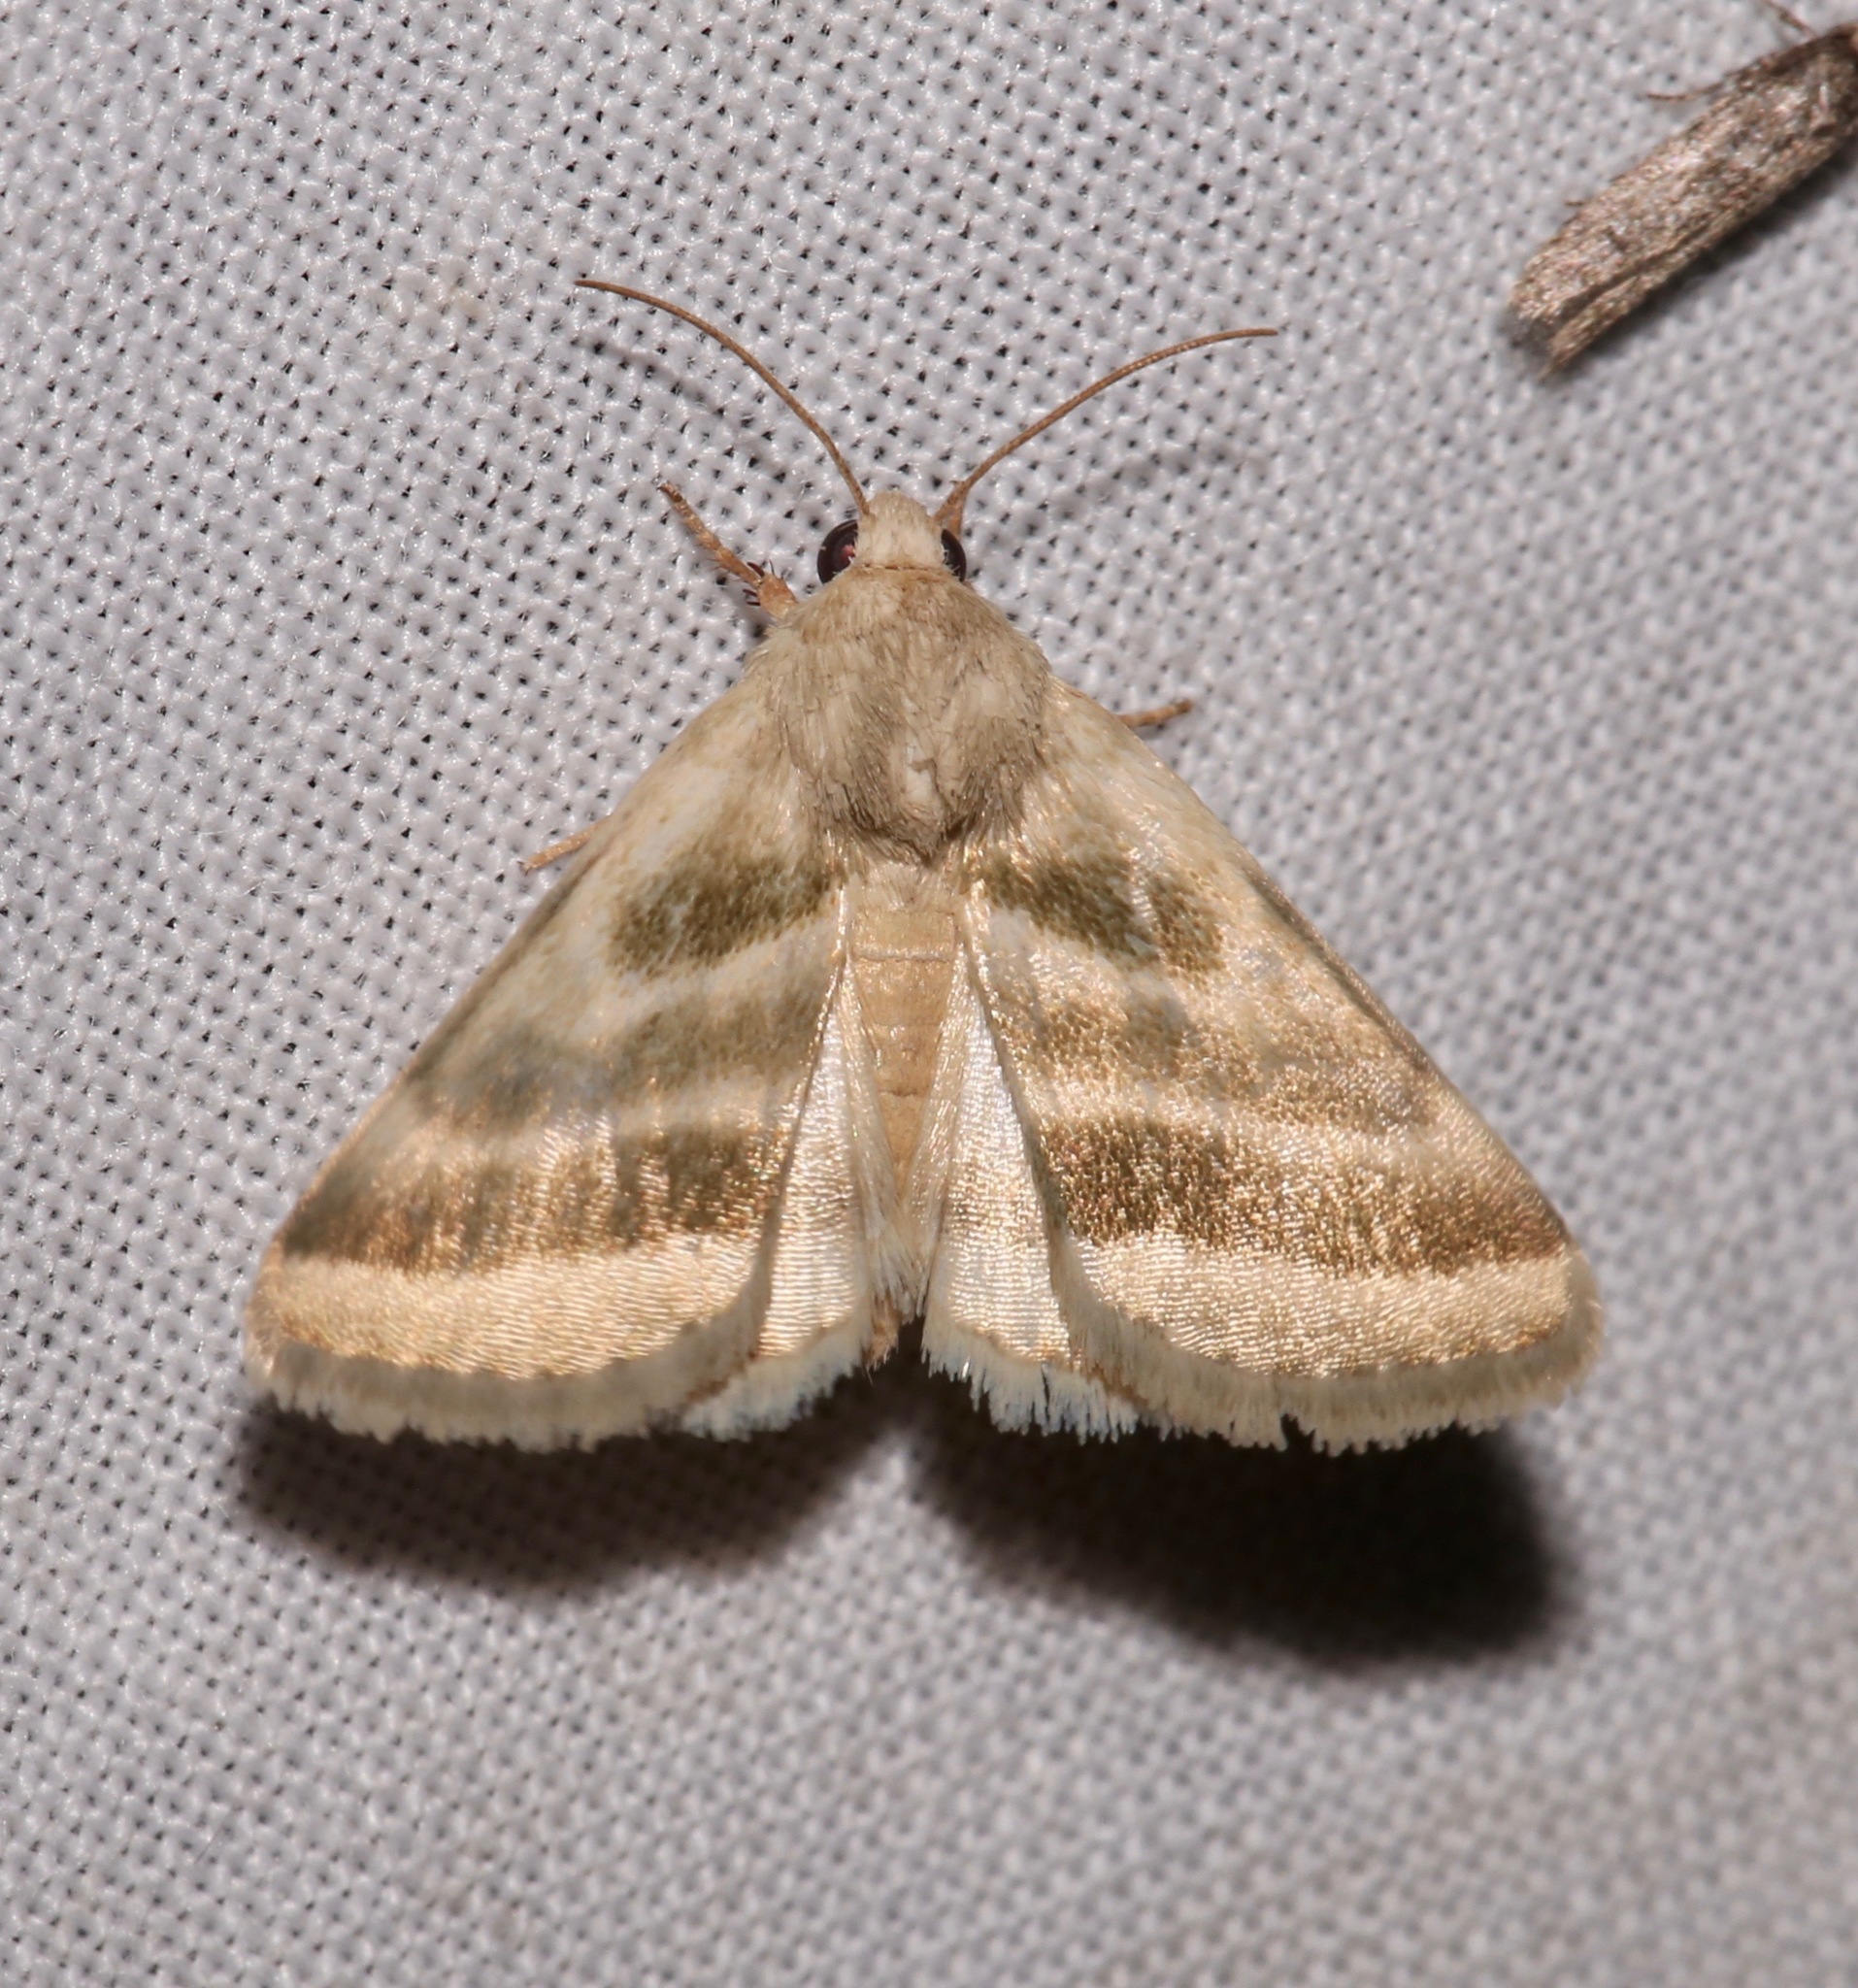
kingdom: Animalia
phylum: Arthropoda
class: Insecta
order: Lepidoptera
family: Noctuidae
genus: Schinia
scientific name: Schinia trifascia
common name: Three-lined flower moth
